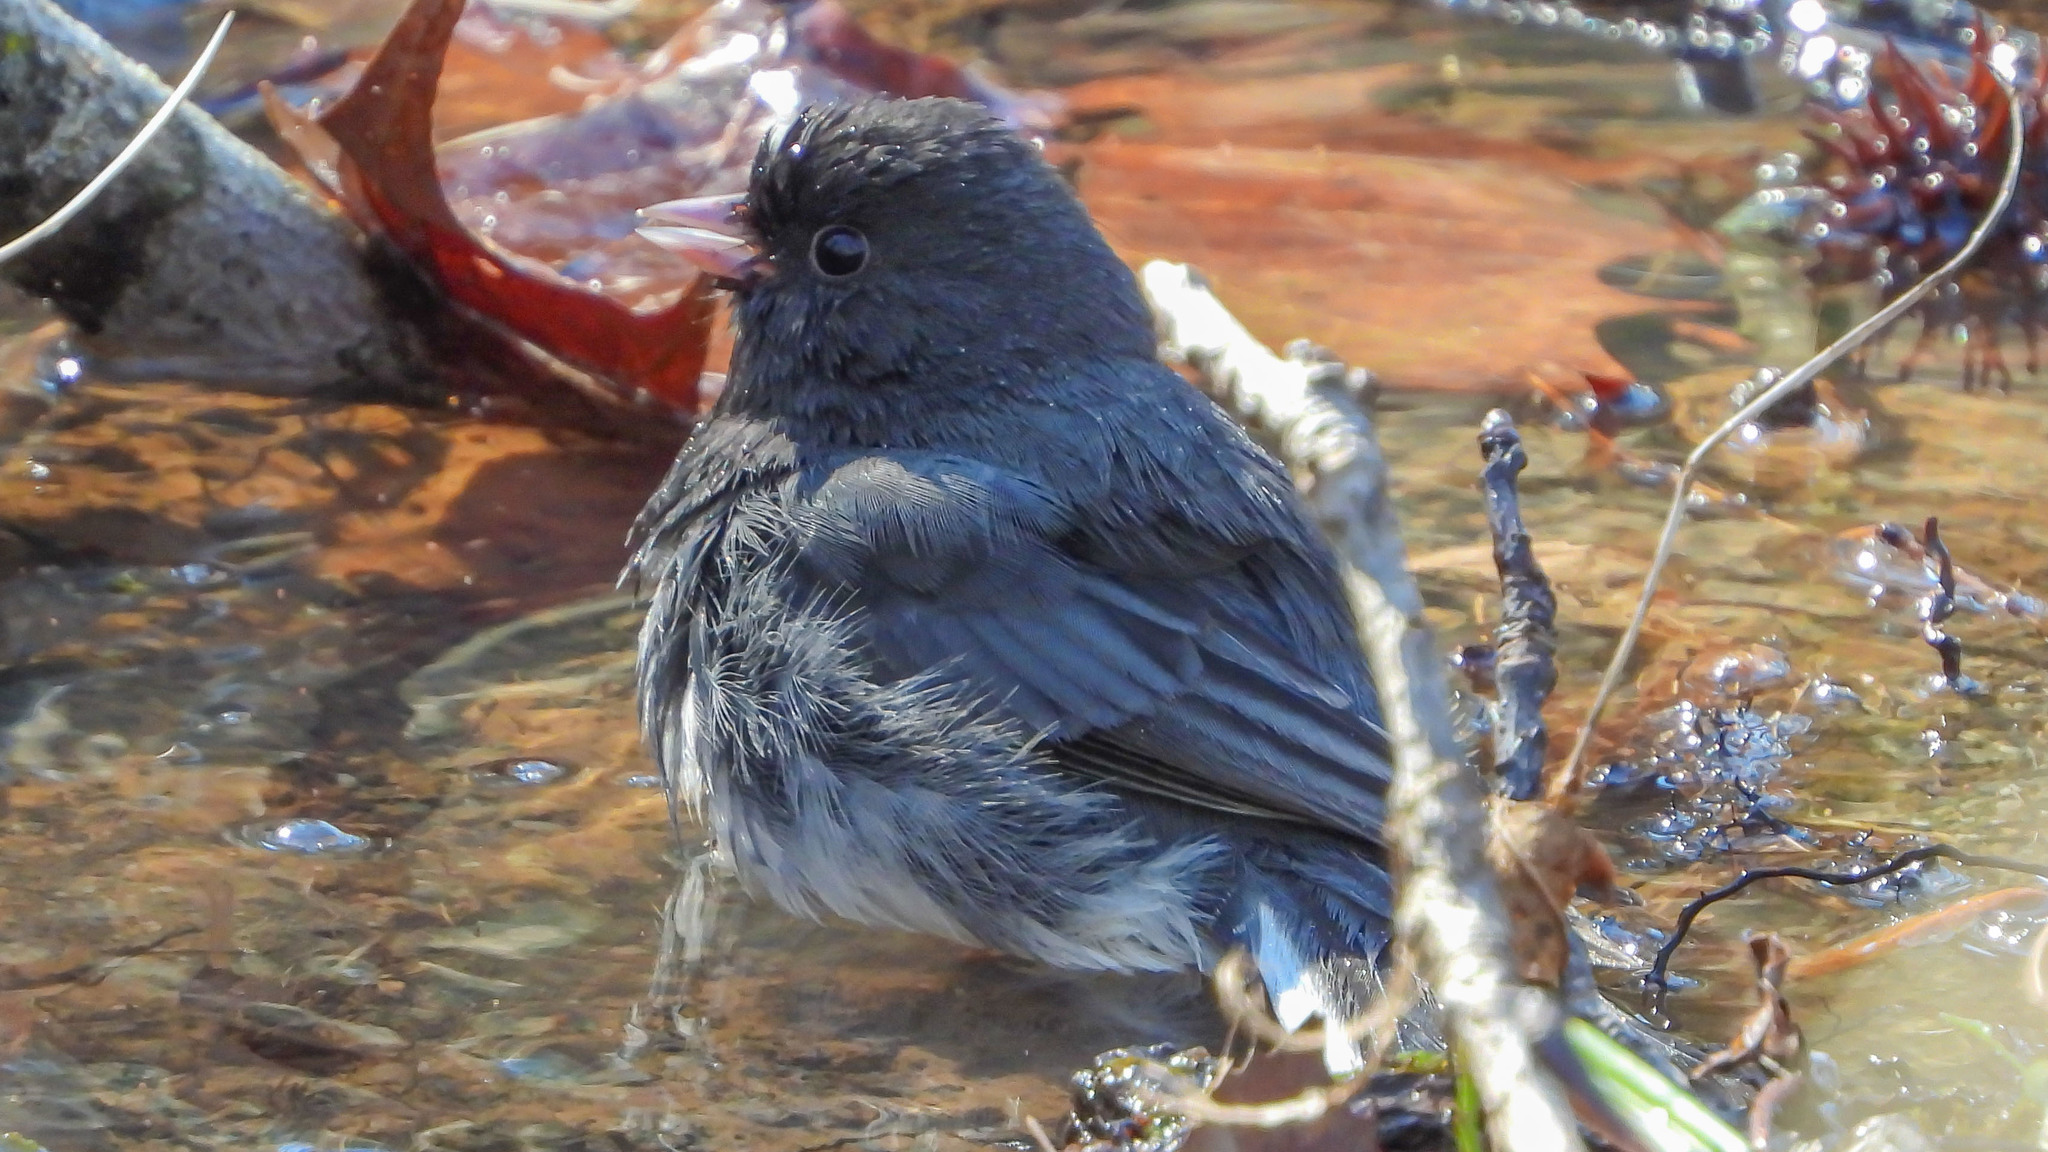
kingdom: Animalia
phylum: Chordata
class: Aves
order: Passeriformes
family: Passerellidae
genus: Junco
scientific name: Junco hyemalis
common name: Dark-eyed junco
